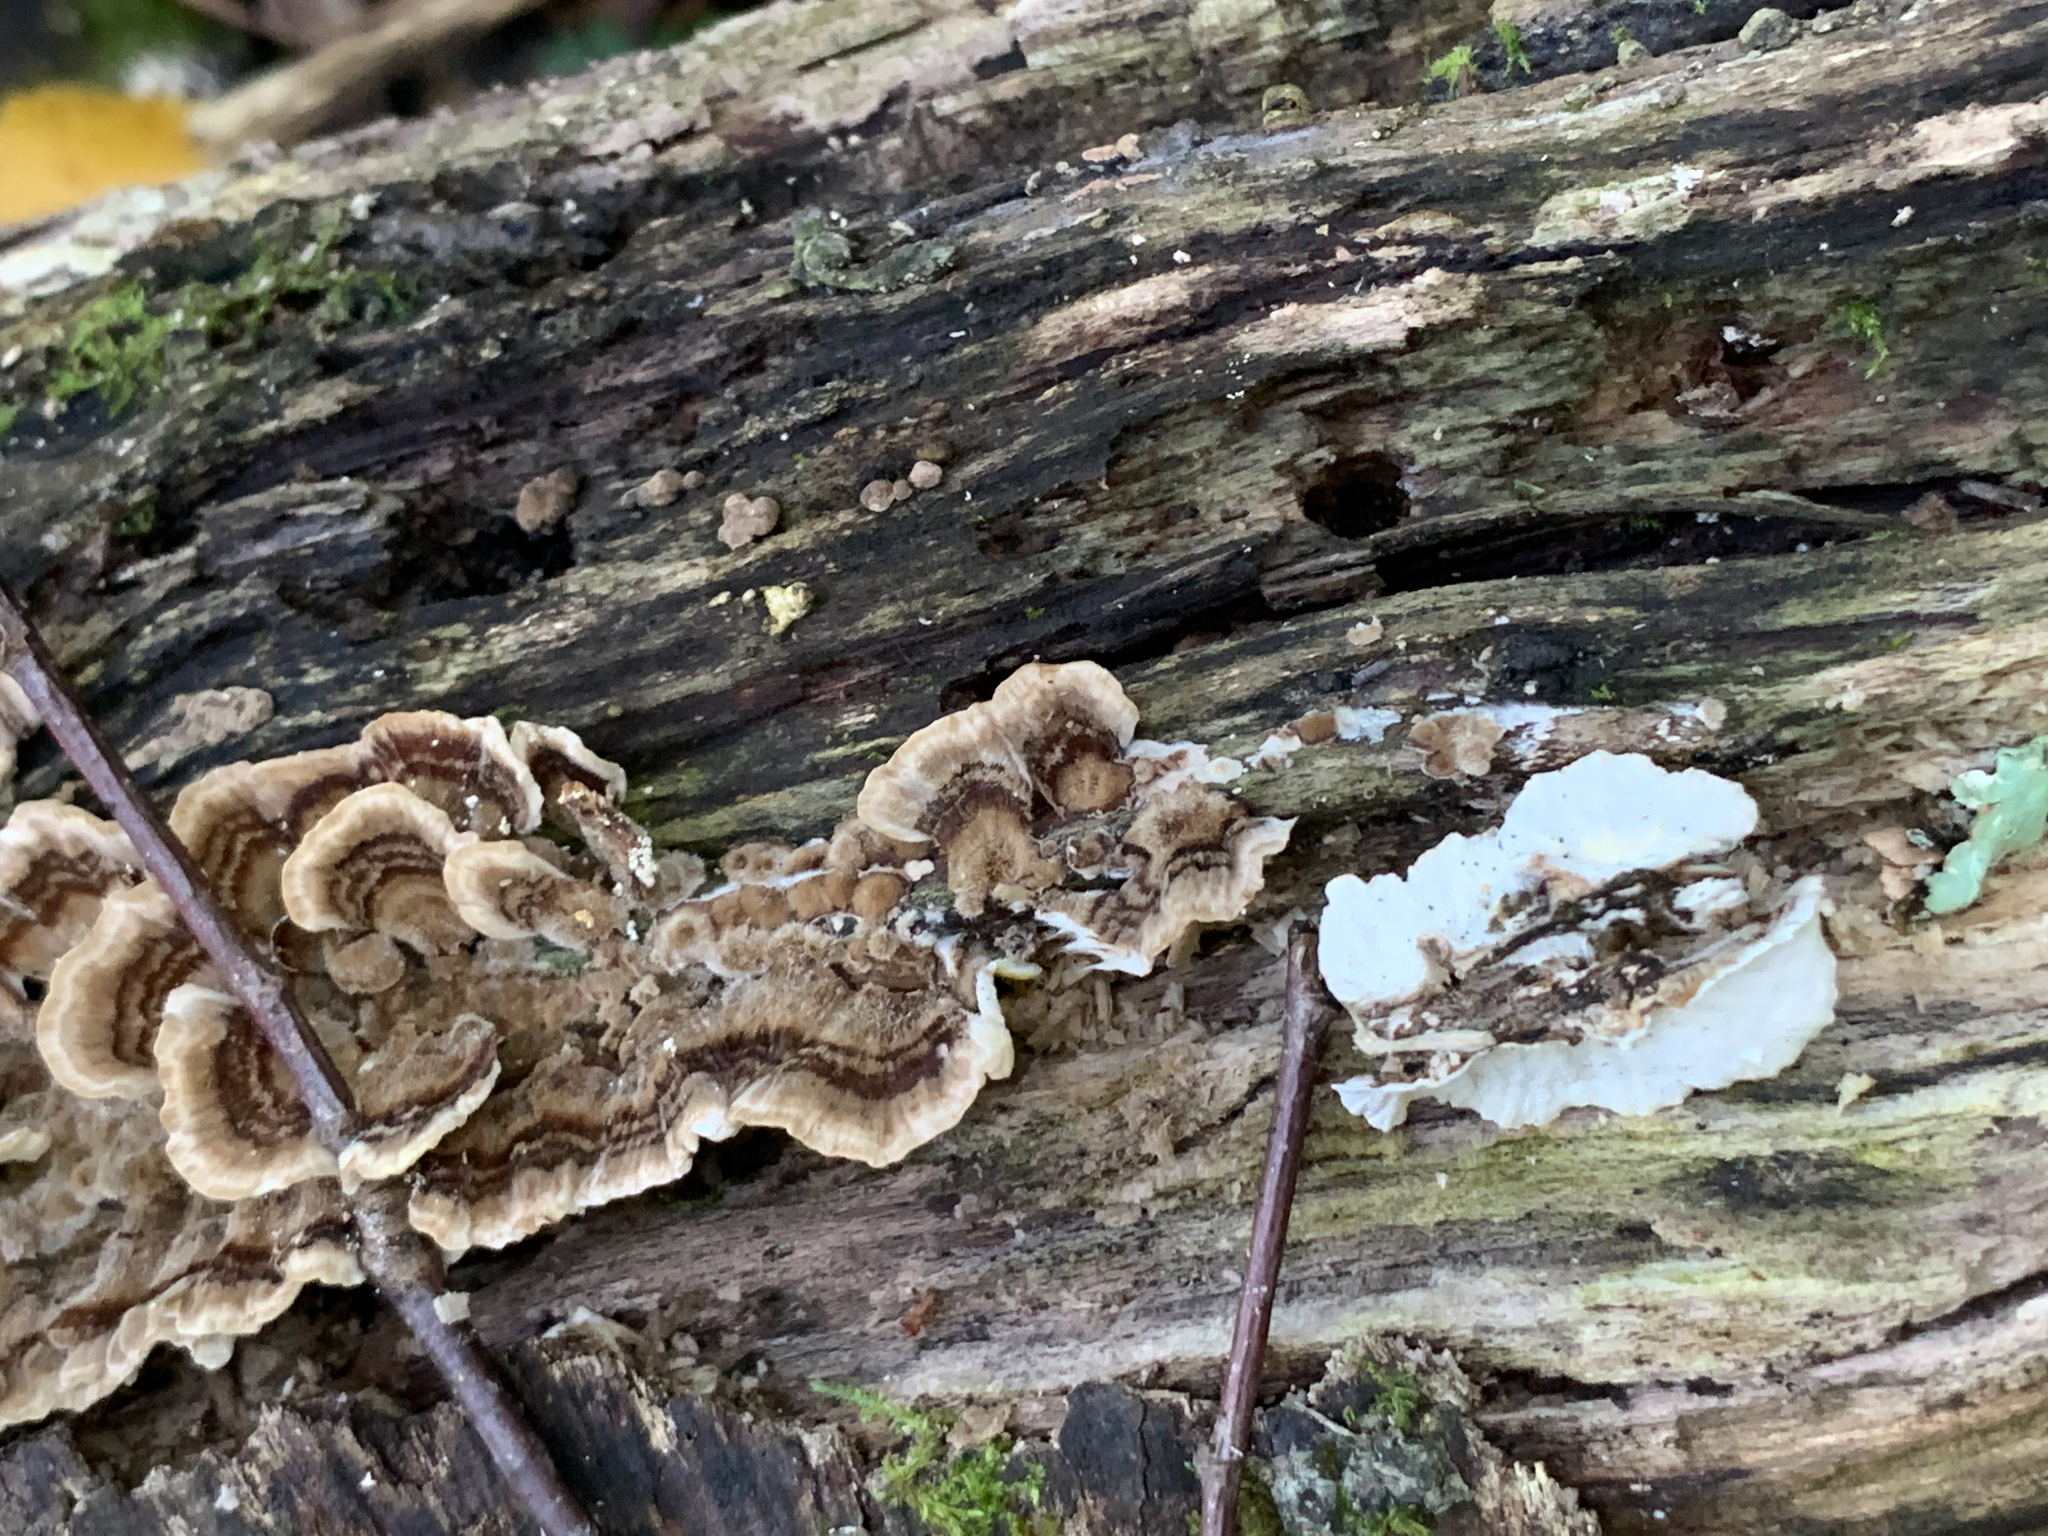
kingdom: Fungi
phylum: Basidiomycota
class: Agaricomycetes
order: Polyporales
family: Polyporaceae
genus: Trametes
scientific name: Trametes versicolor
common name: Turkeytail
